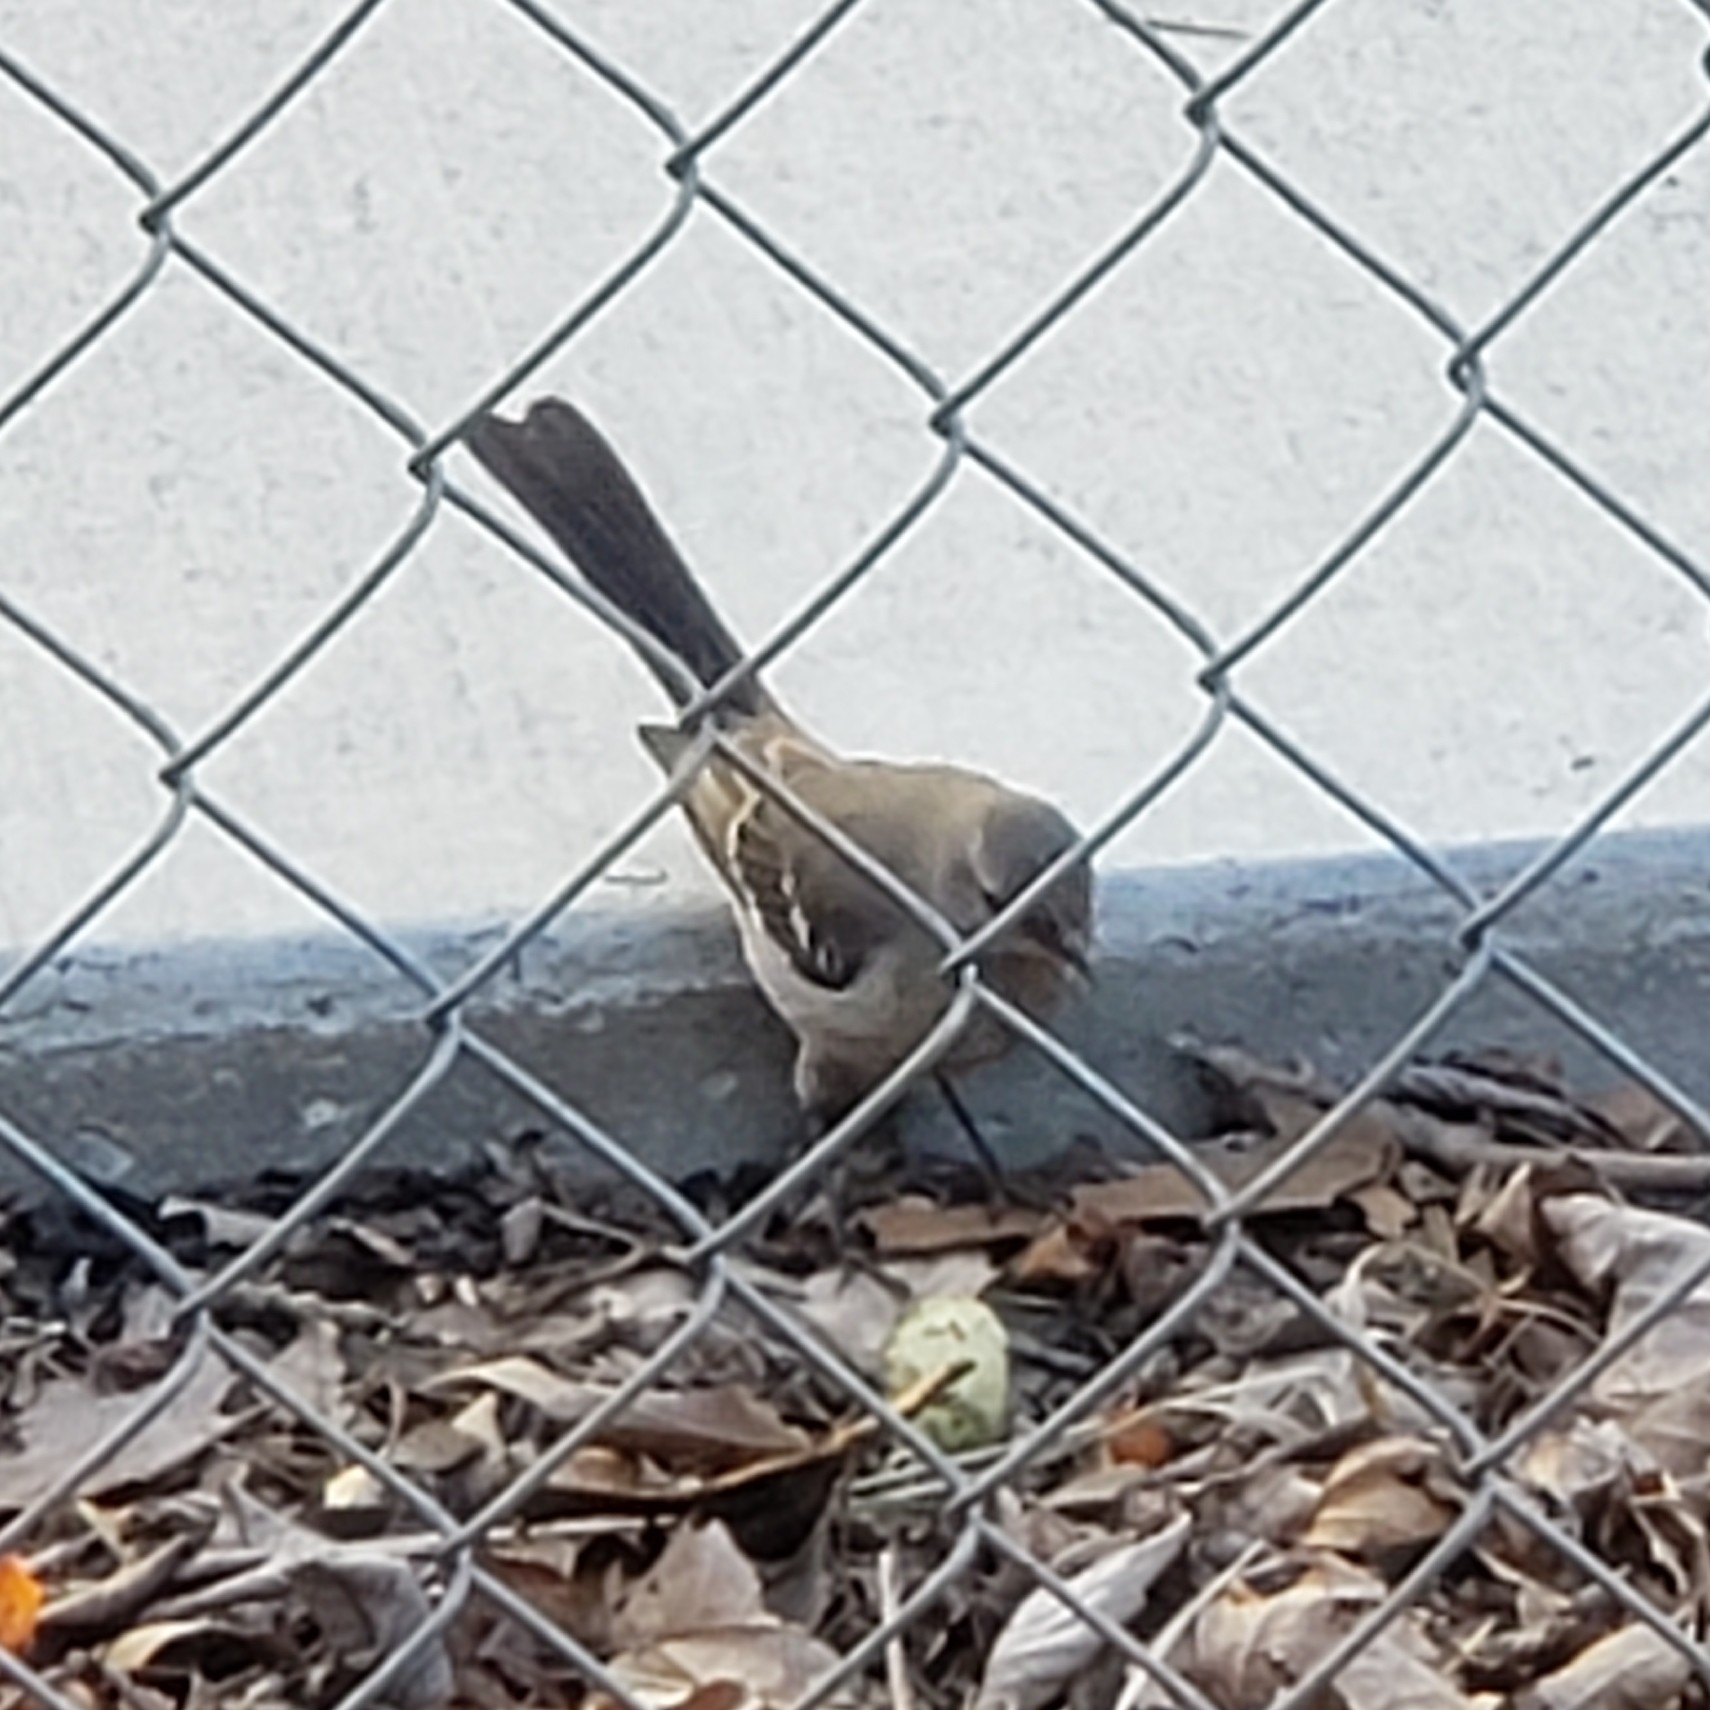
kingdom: Animalia
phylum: Chordata
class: Aves
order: Passeriformes
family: Mimidae
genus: Mimus
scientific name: Mimus polyglottos
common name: Northern mockingbird
